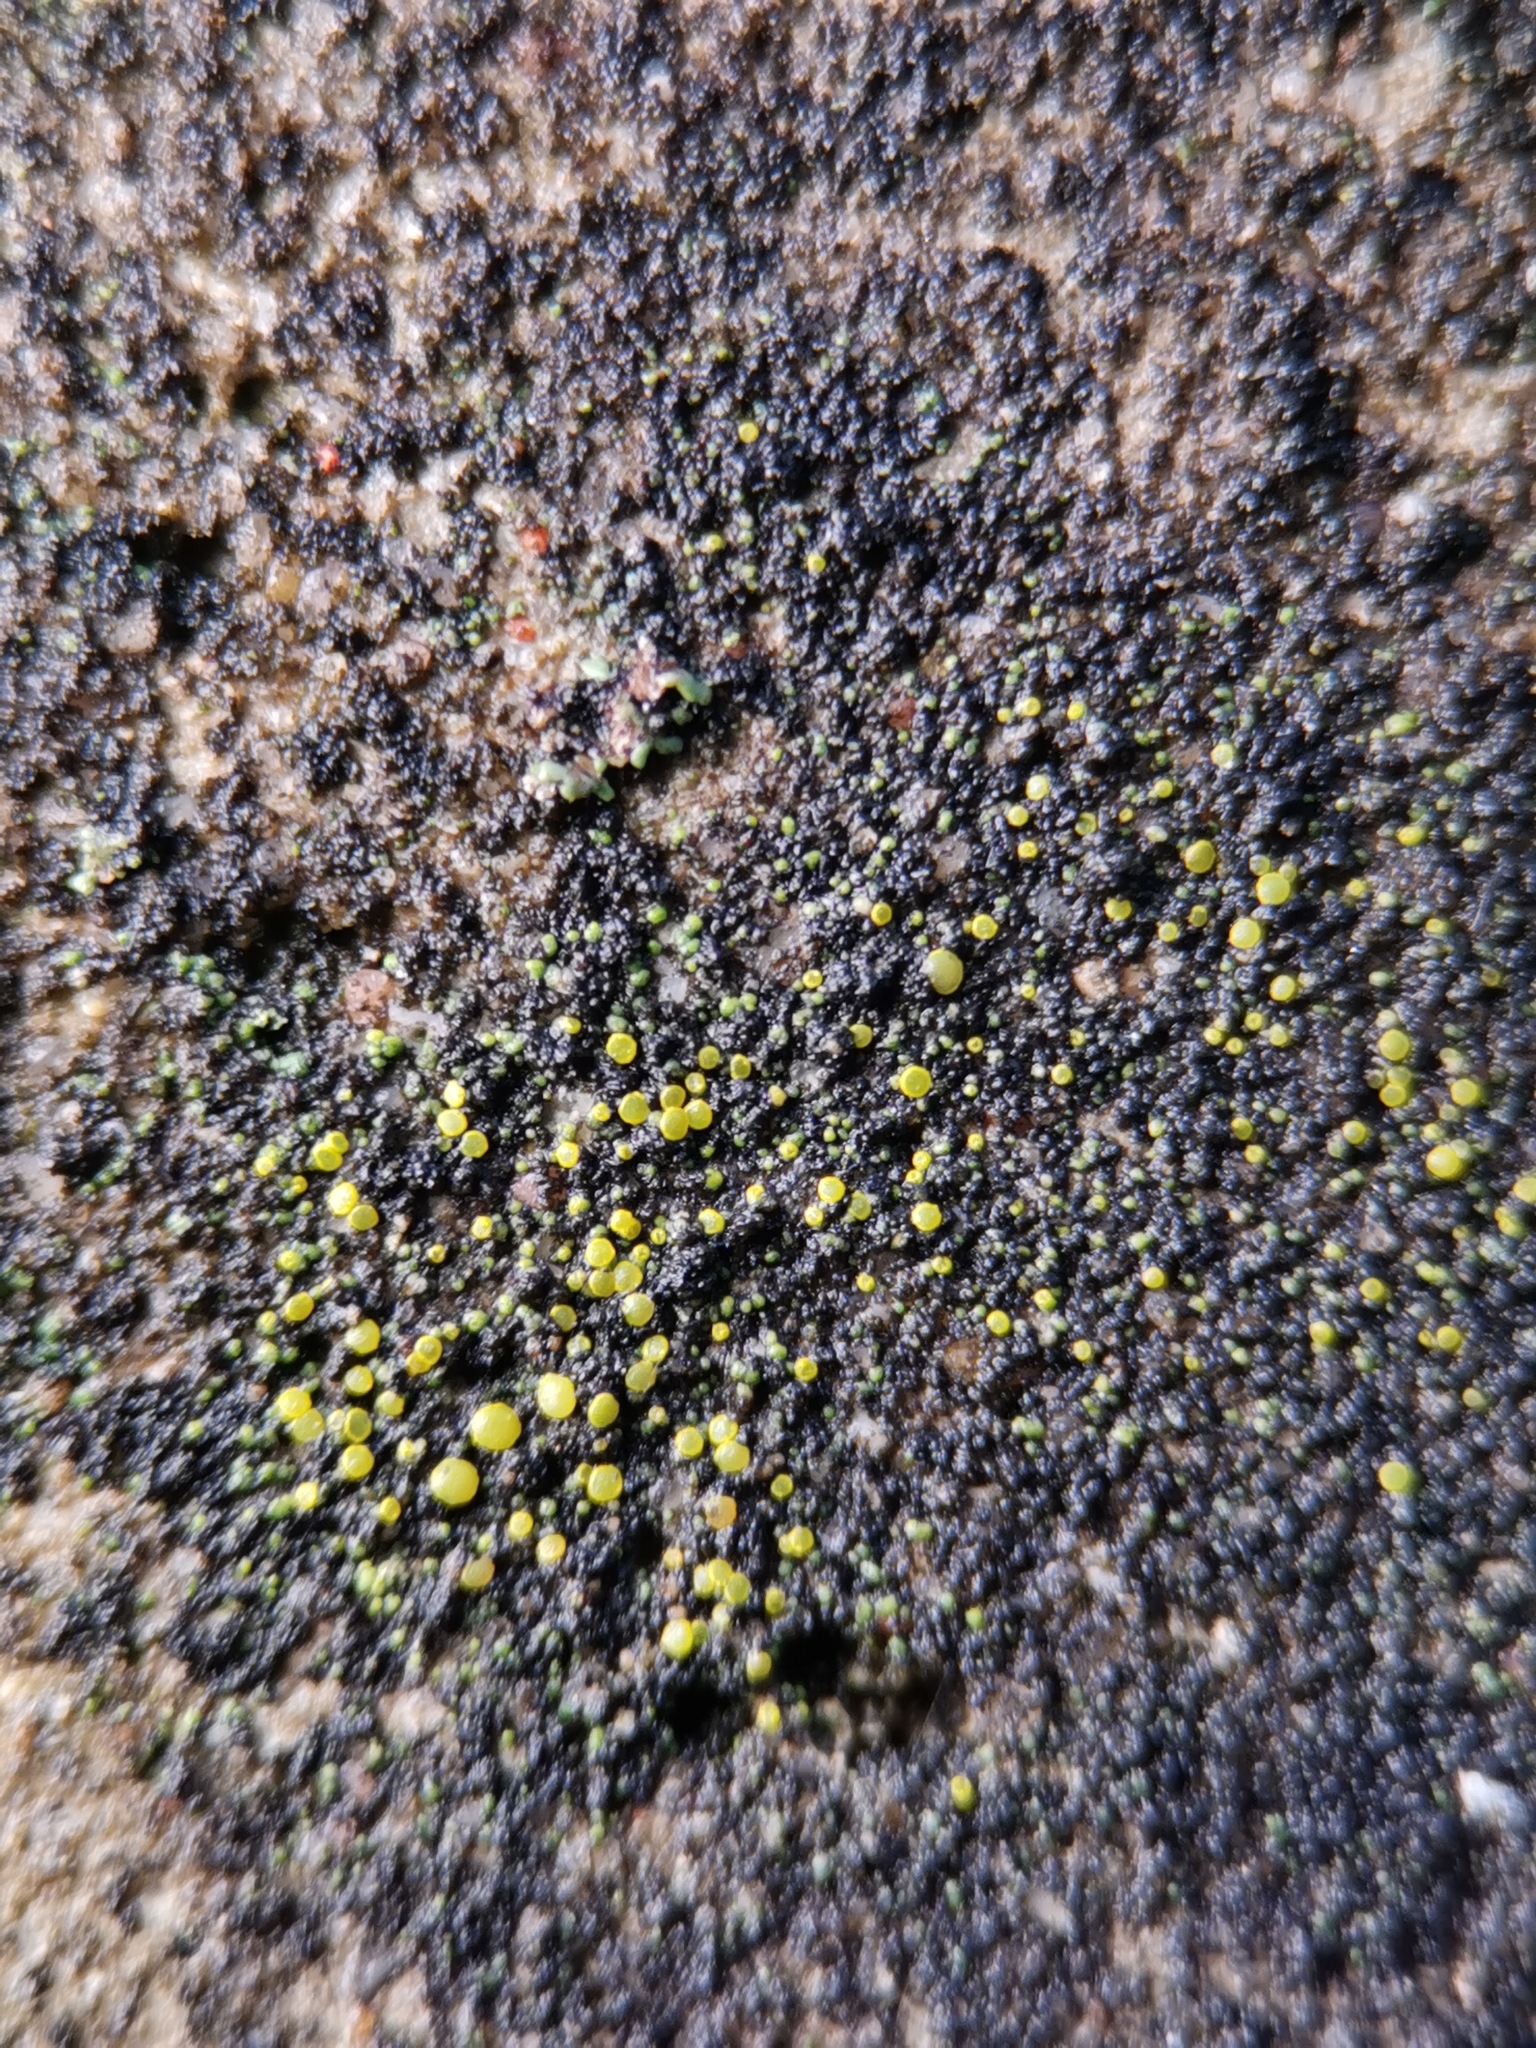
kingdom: Fungi
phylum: Ascomycota
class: Candelariomycetes
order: Candelariales
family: Candelariaceae
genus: Candelariella
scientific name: Candelariella aurella
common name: Hidden goldspeck lichen
